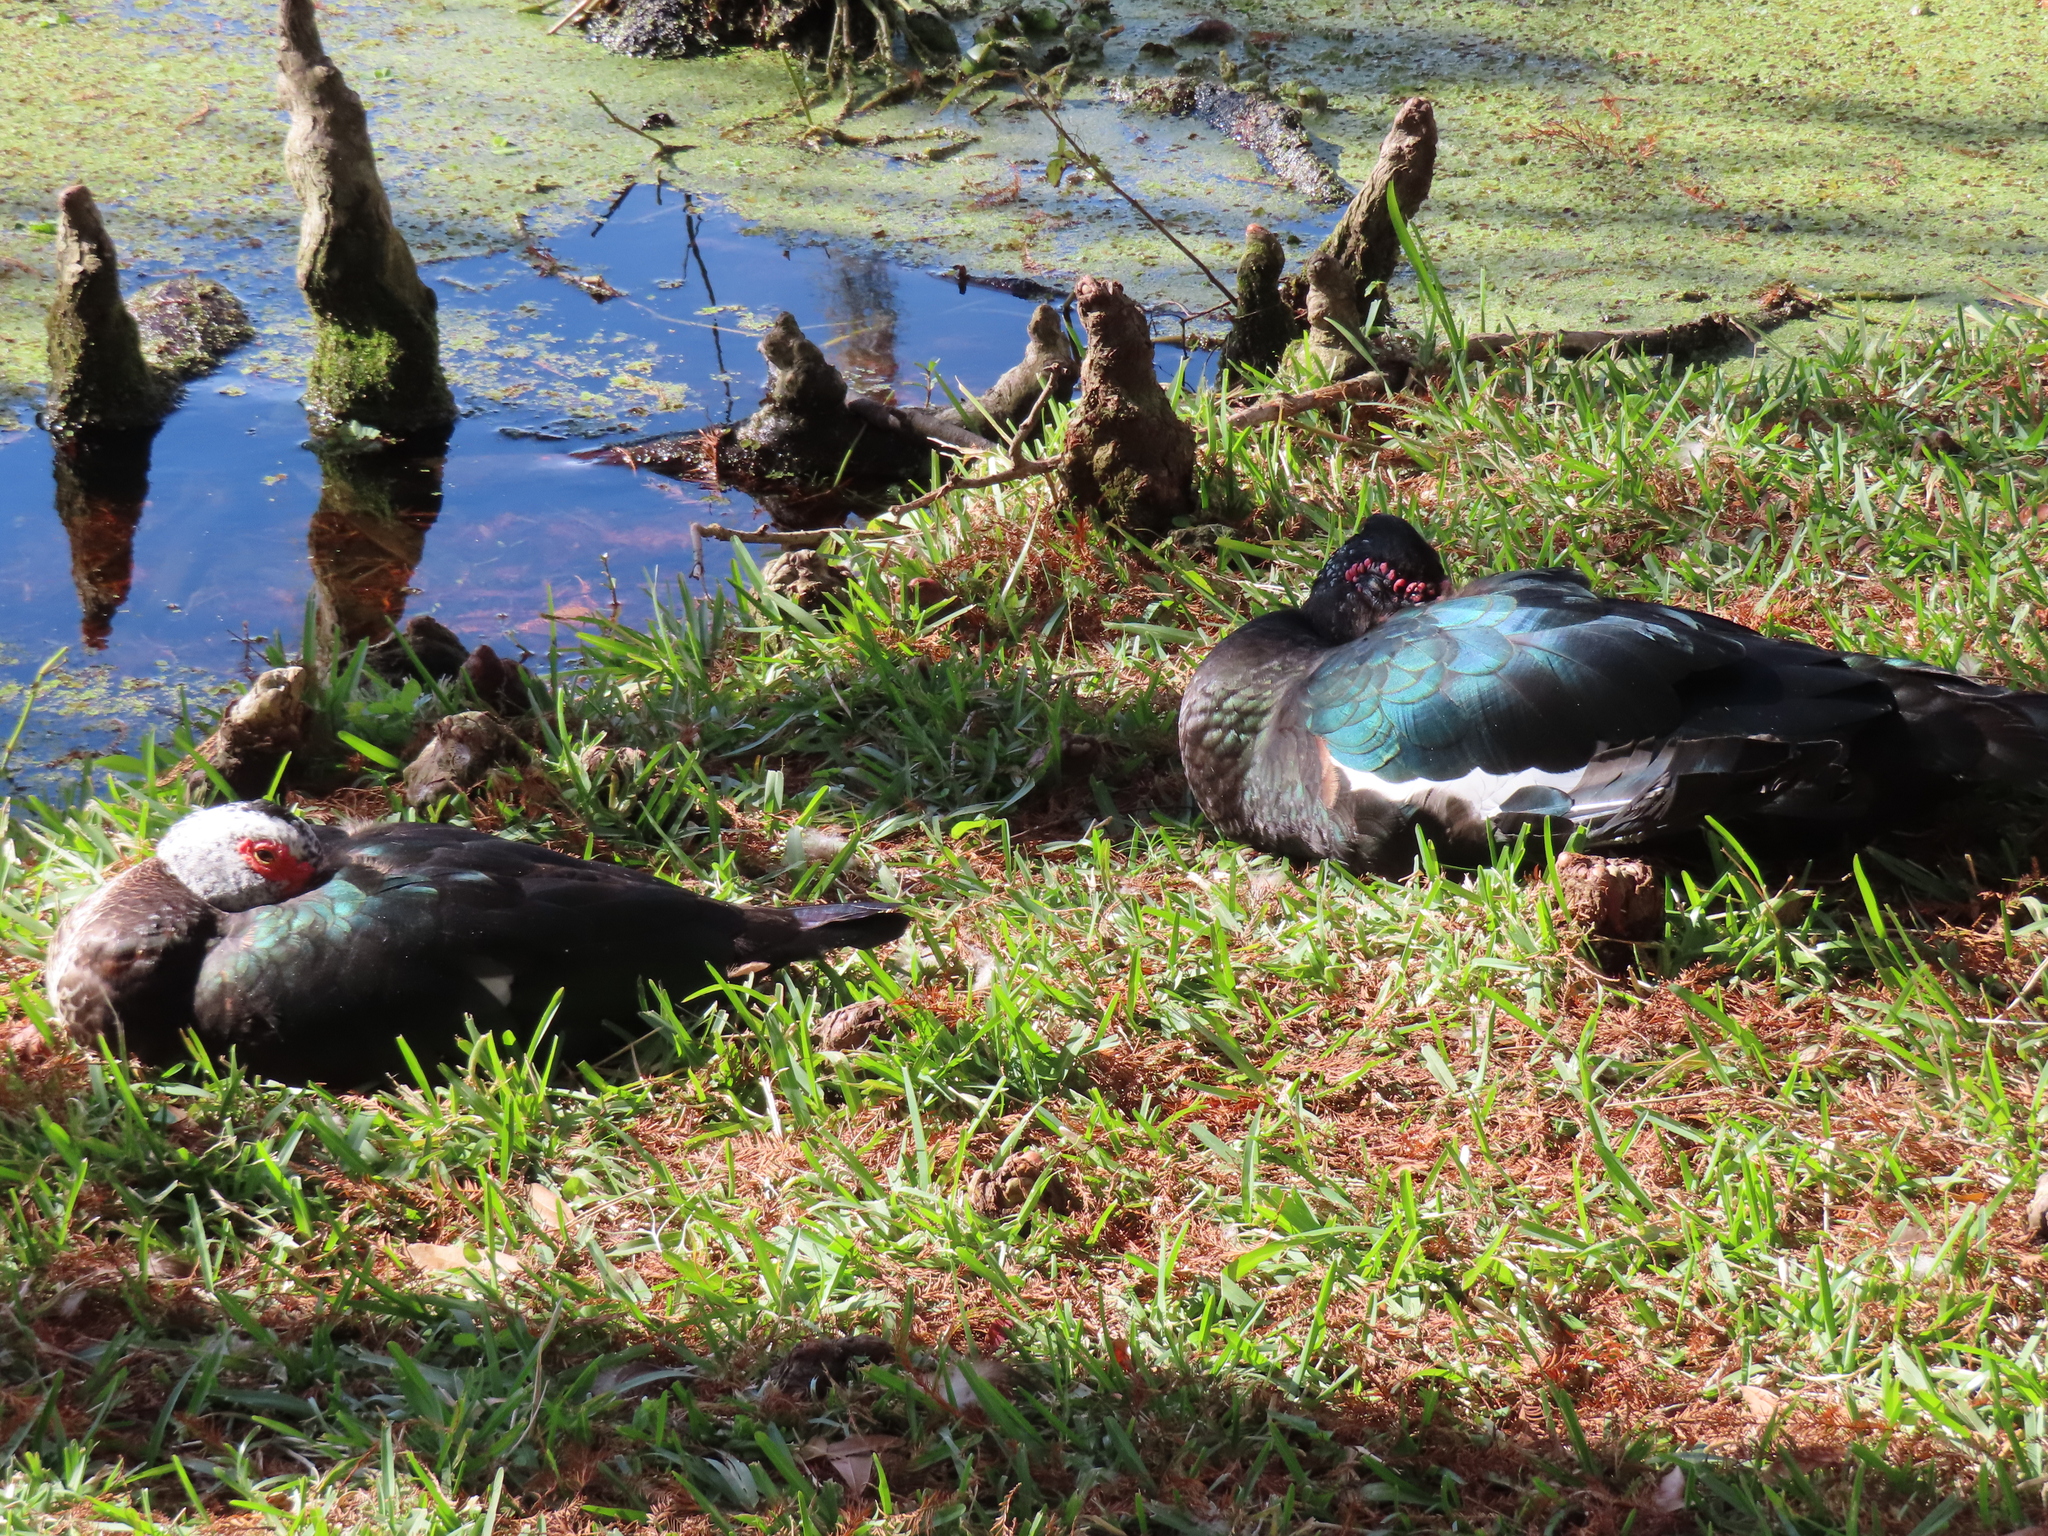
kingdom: Animalia
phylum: Chordata
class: Aves
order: Anseriformes
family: Anatidae
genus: Cairina
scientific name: Cairina moschata
